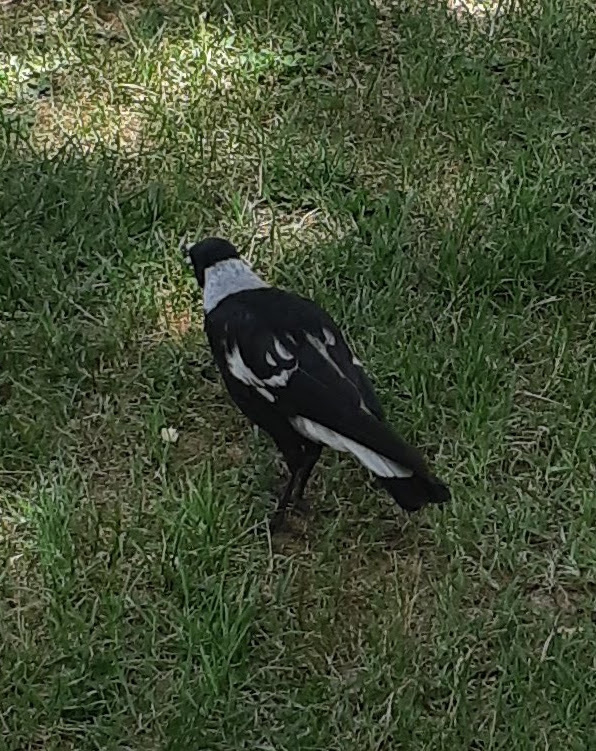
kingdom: Animalia
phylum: Chordata
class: Aves
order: Passeriformes
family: Cracticidae
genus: Gymnorhina
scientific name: Gymnorhina tibicen
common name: Australian magpie
